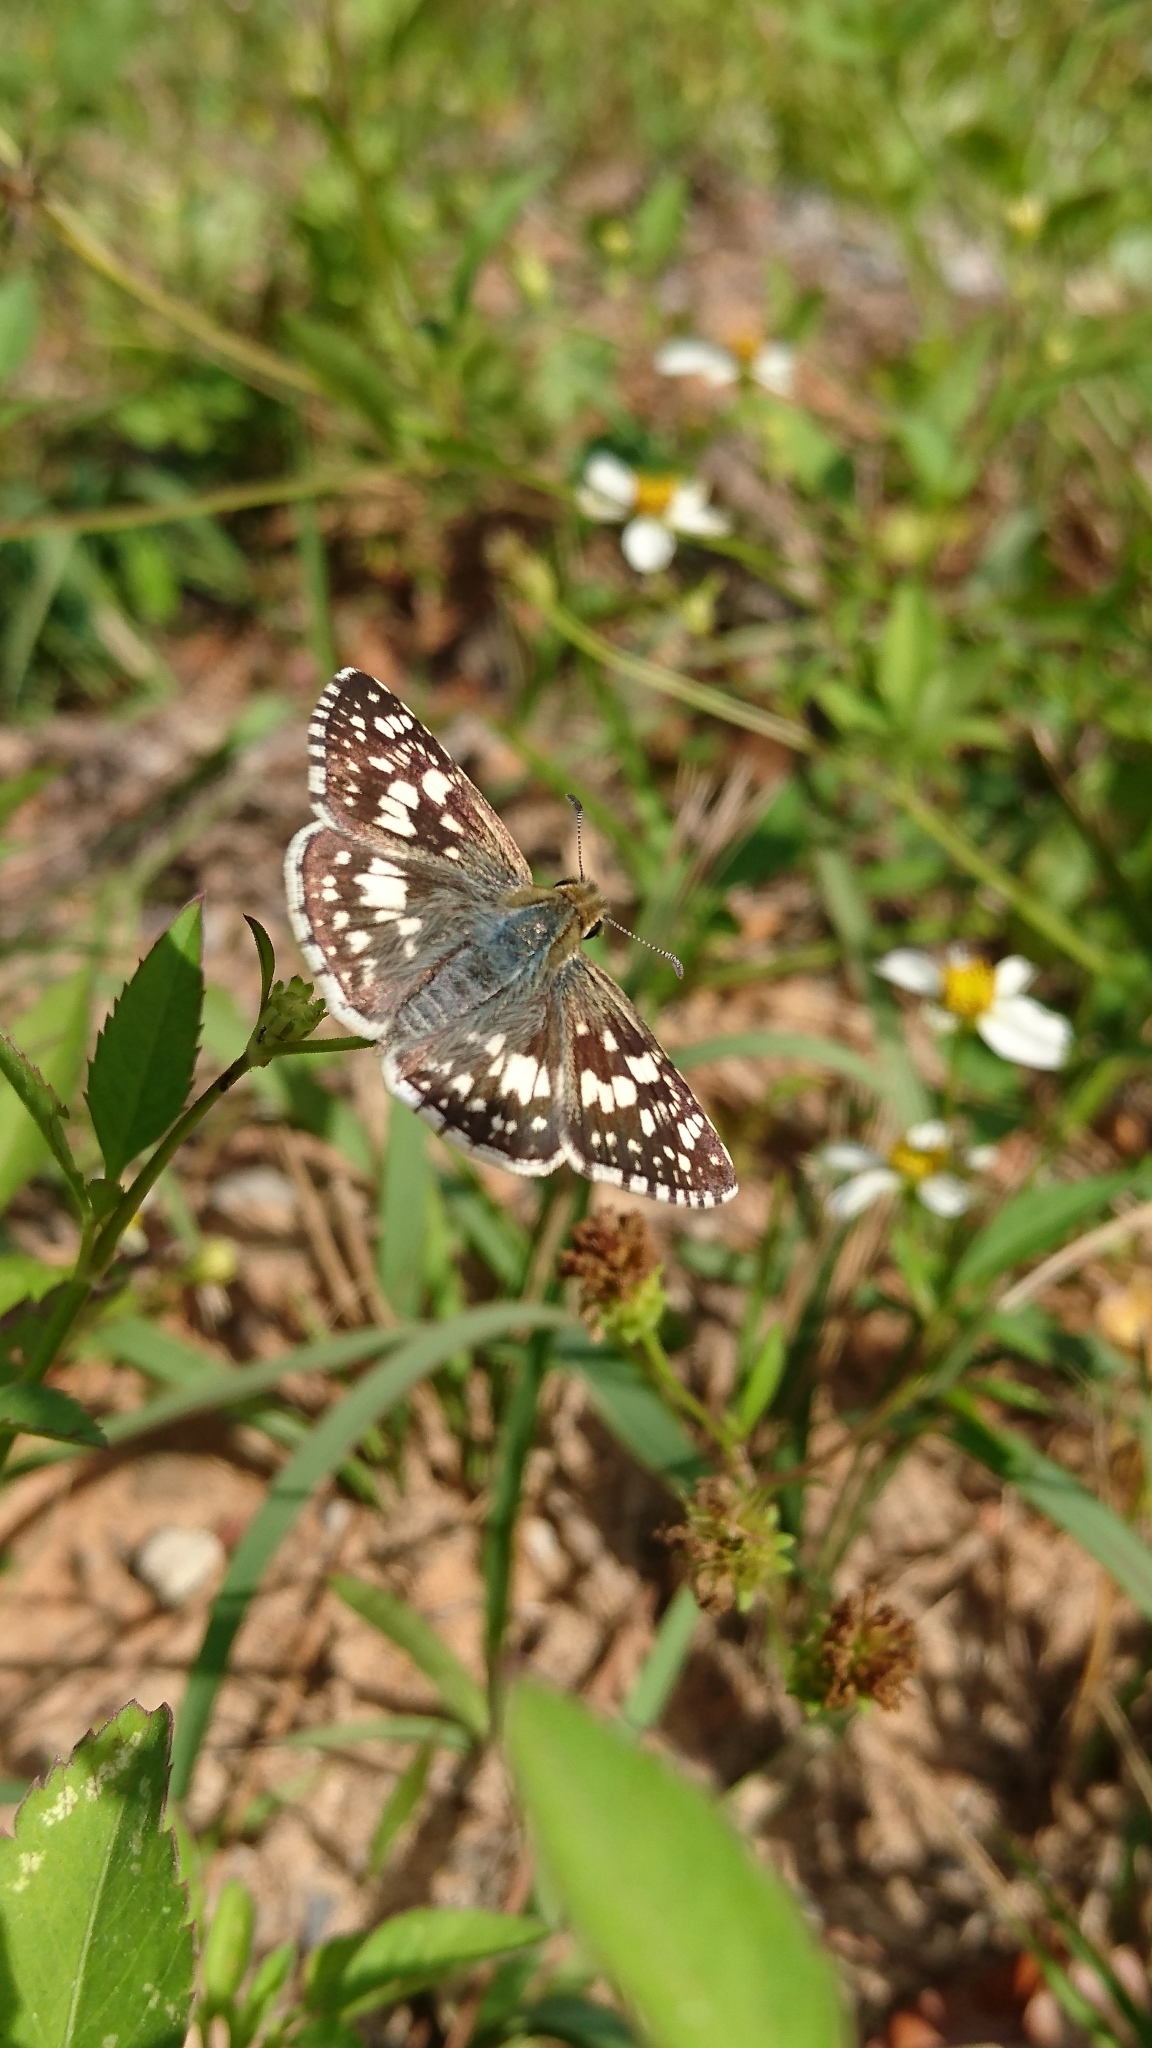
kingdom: Animalia
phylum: Arthropoda
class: Insecta
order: Lepidoptera
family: Hesperiidae
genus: Burnsius
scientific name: Burnsius albezens
